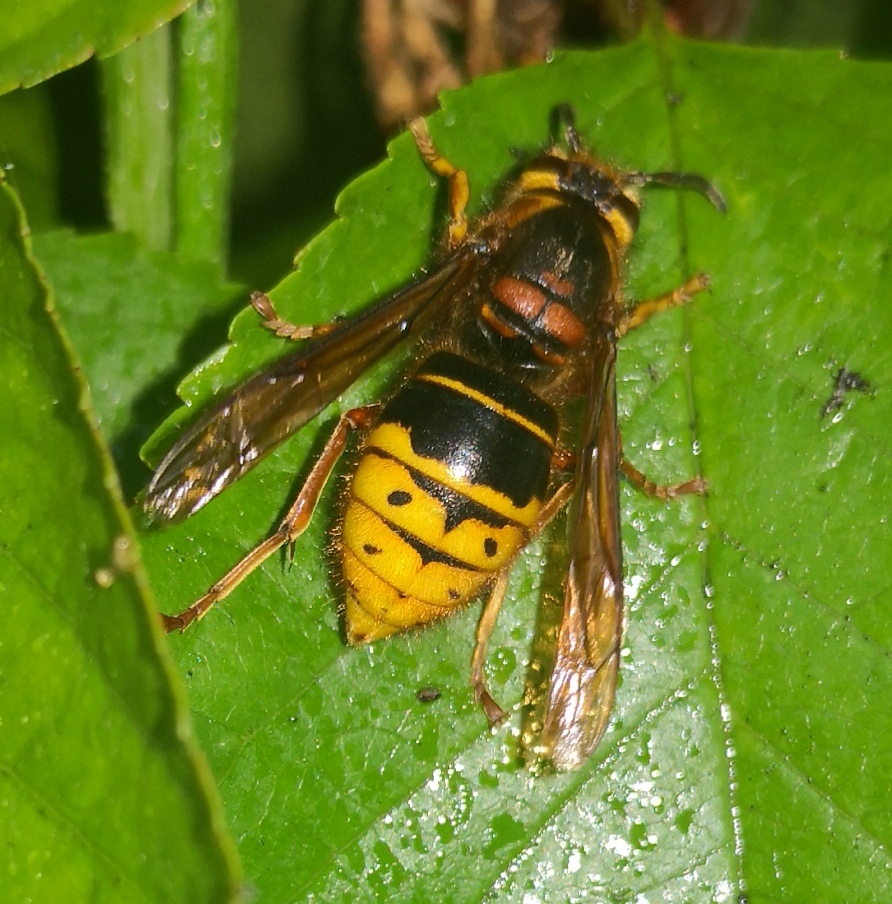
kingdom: Animalia
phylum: Arthropoda
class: Insecta
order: Hymenoptera
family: Vespidae
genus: Dolichovespula
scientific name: Dolichovespula media
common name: Median wasp
